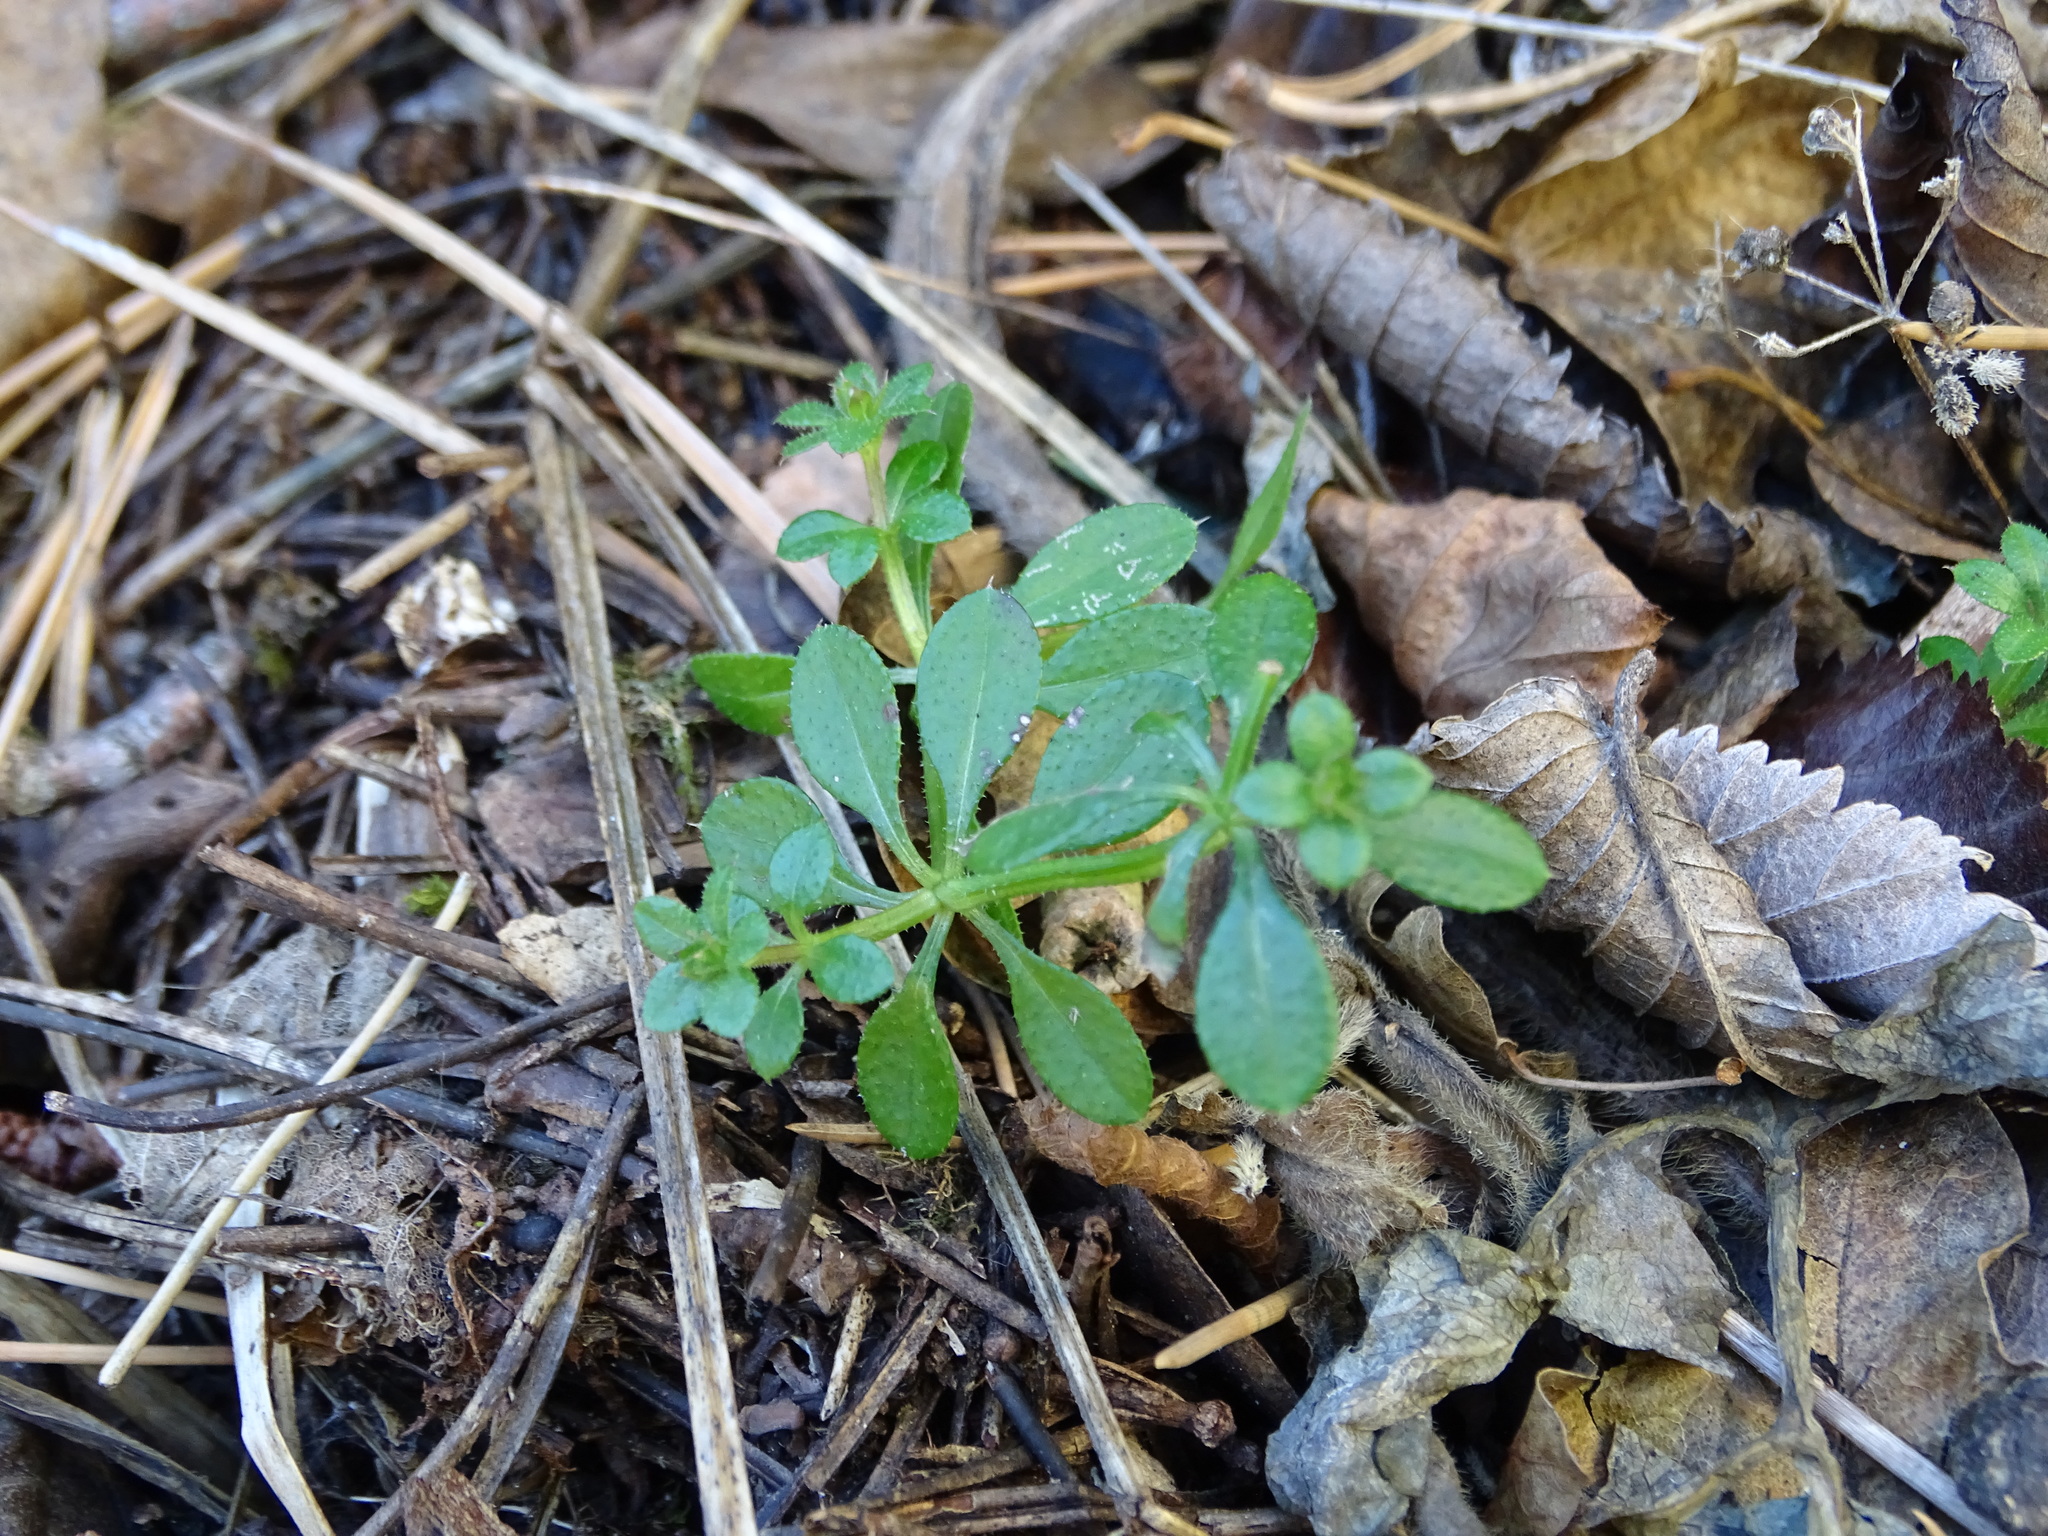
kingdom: Plantae
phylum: Tracheophyta
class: Magnoliopsida
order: Gentianales
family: Rubiaceae
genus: Galium
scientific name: Galium aparine
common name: Cleavers
